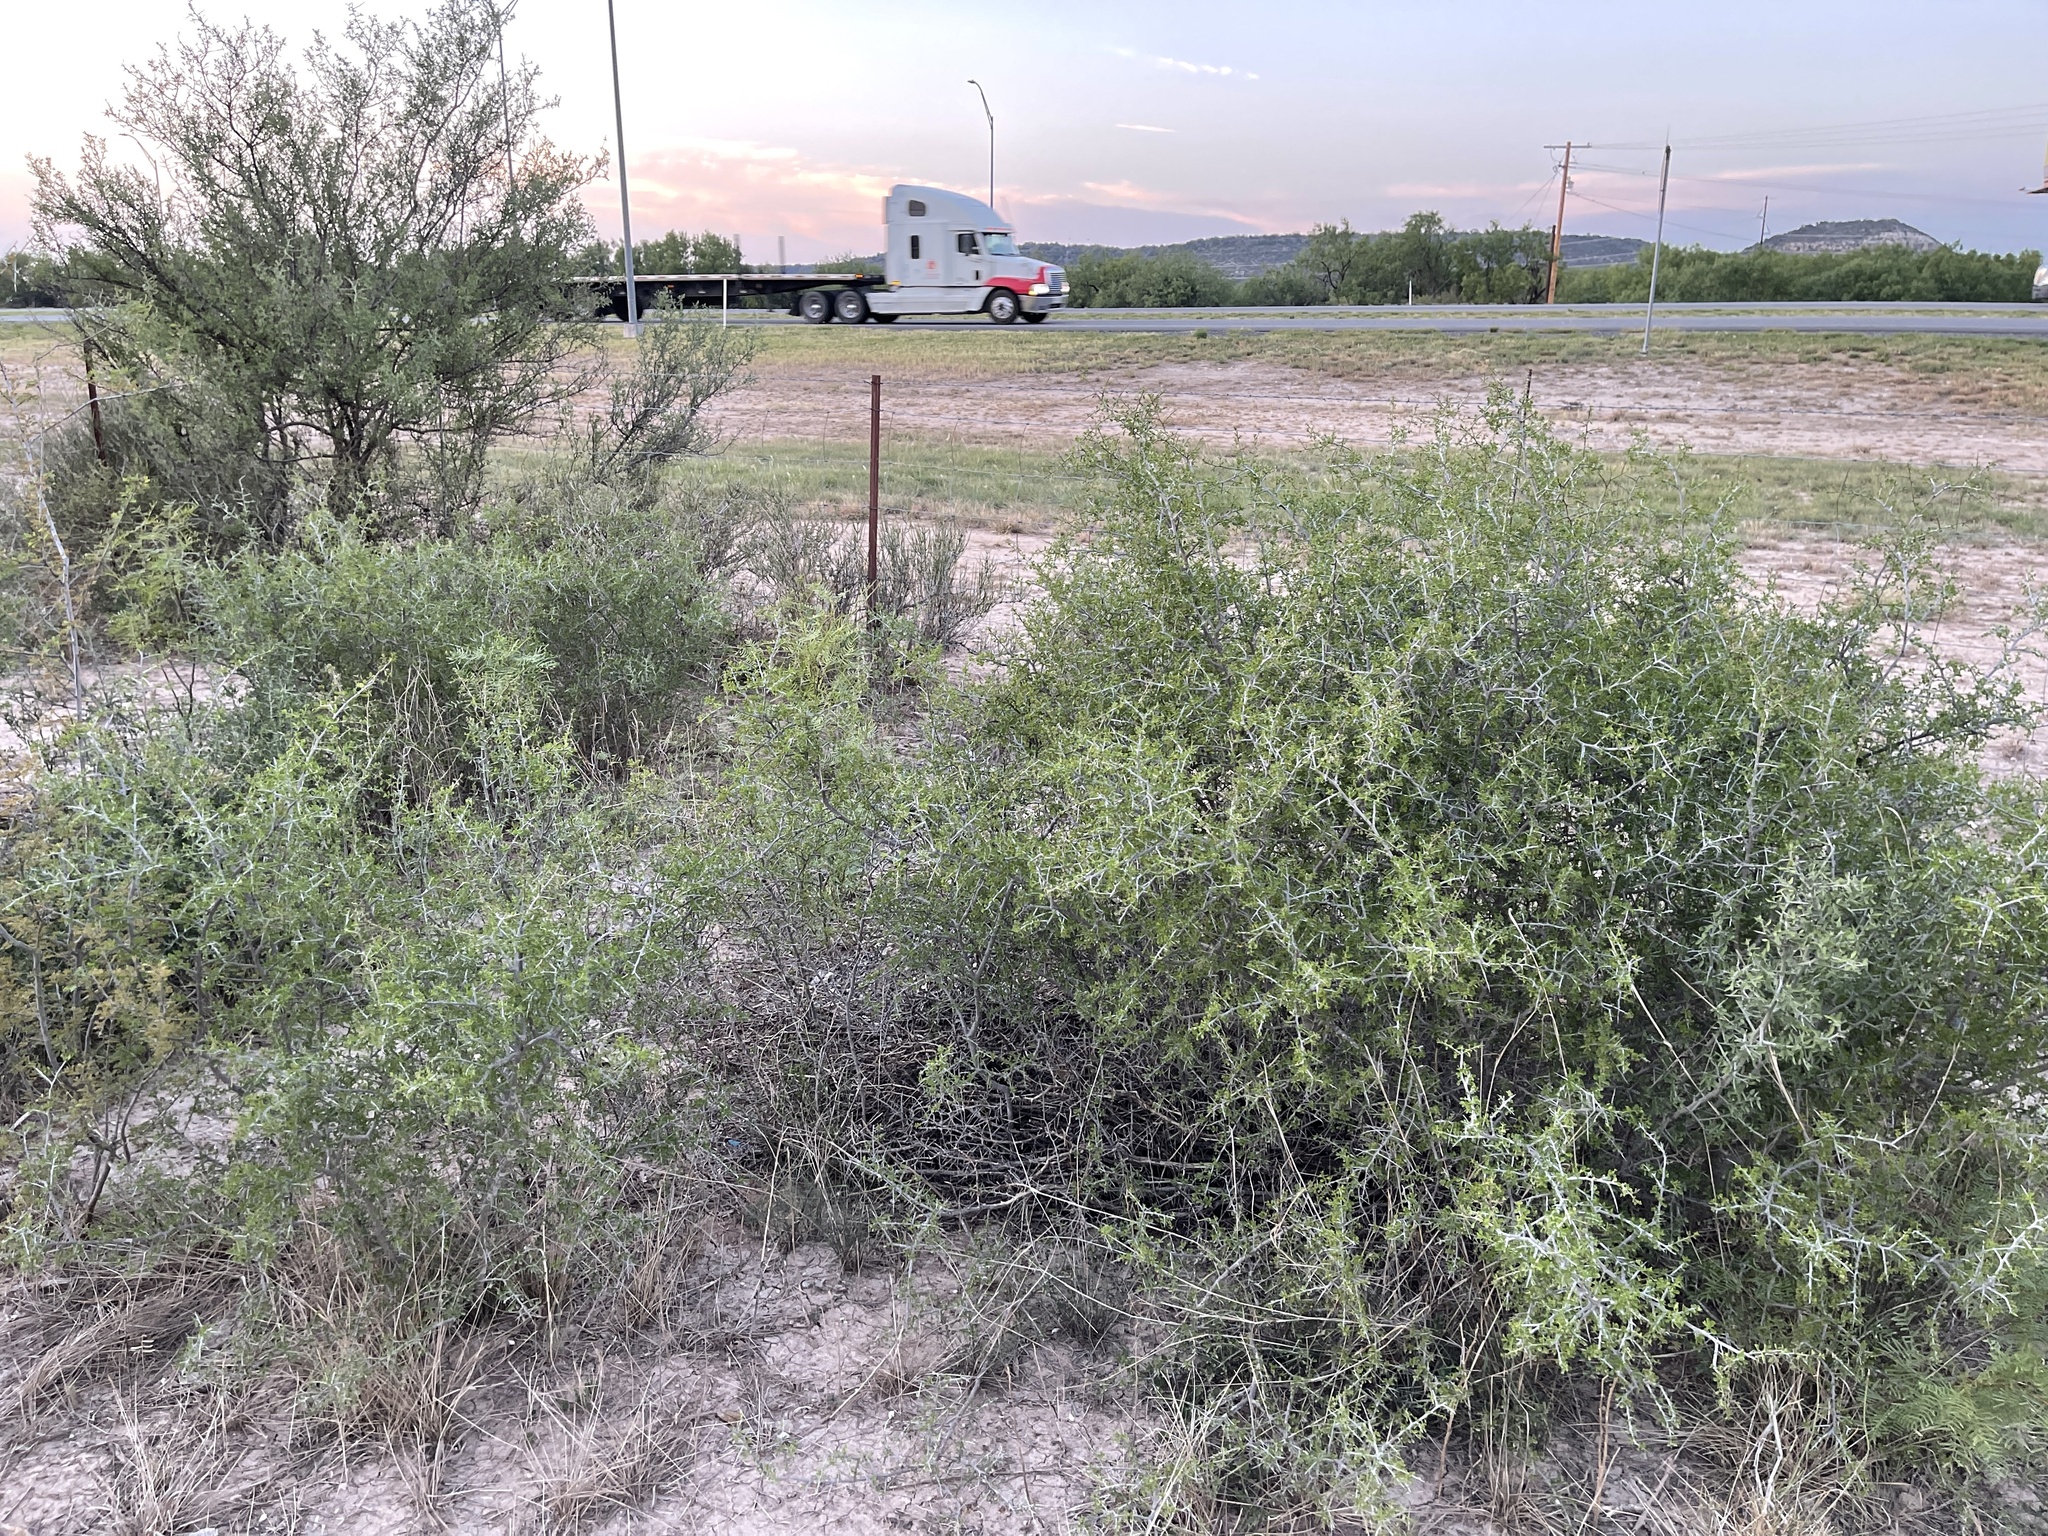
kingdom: Plantae
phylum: Tracheophyta
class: Magnoliopsida
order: Rosales
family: Rhamnaceae
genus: Condalia
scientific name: Condalia viridis
